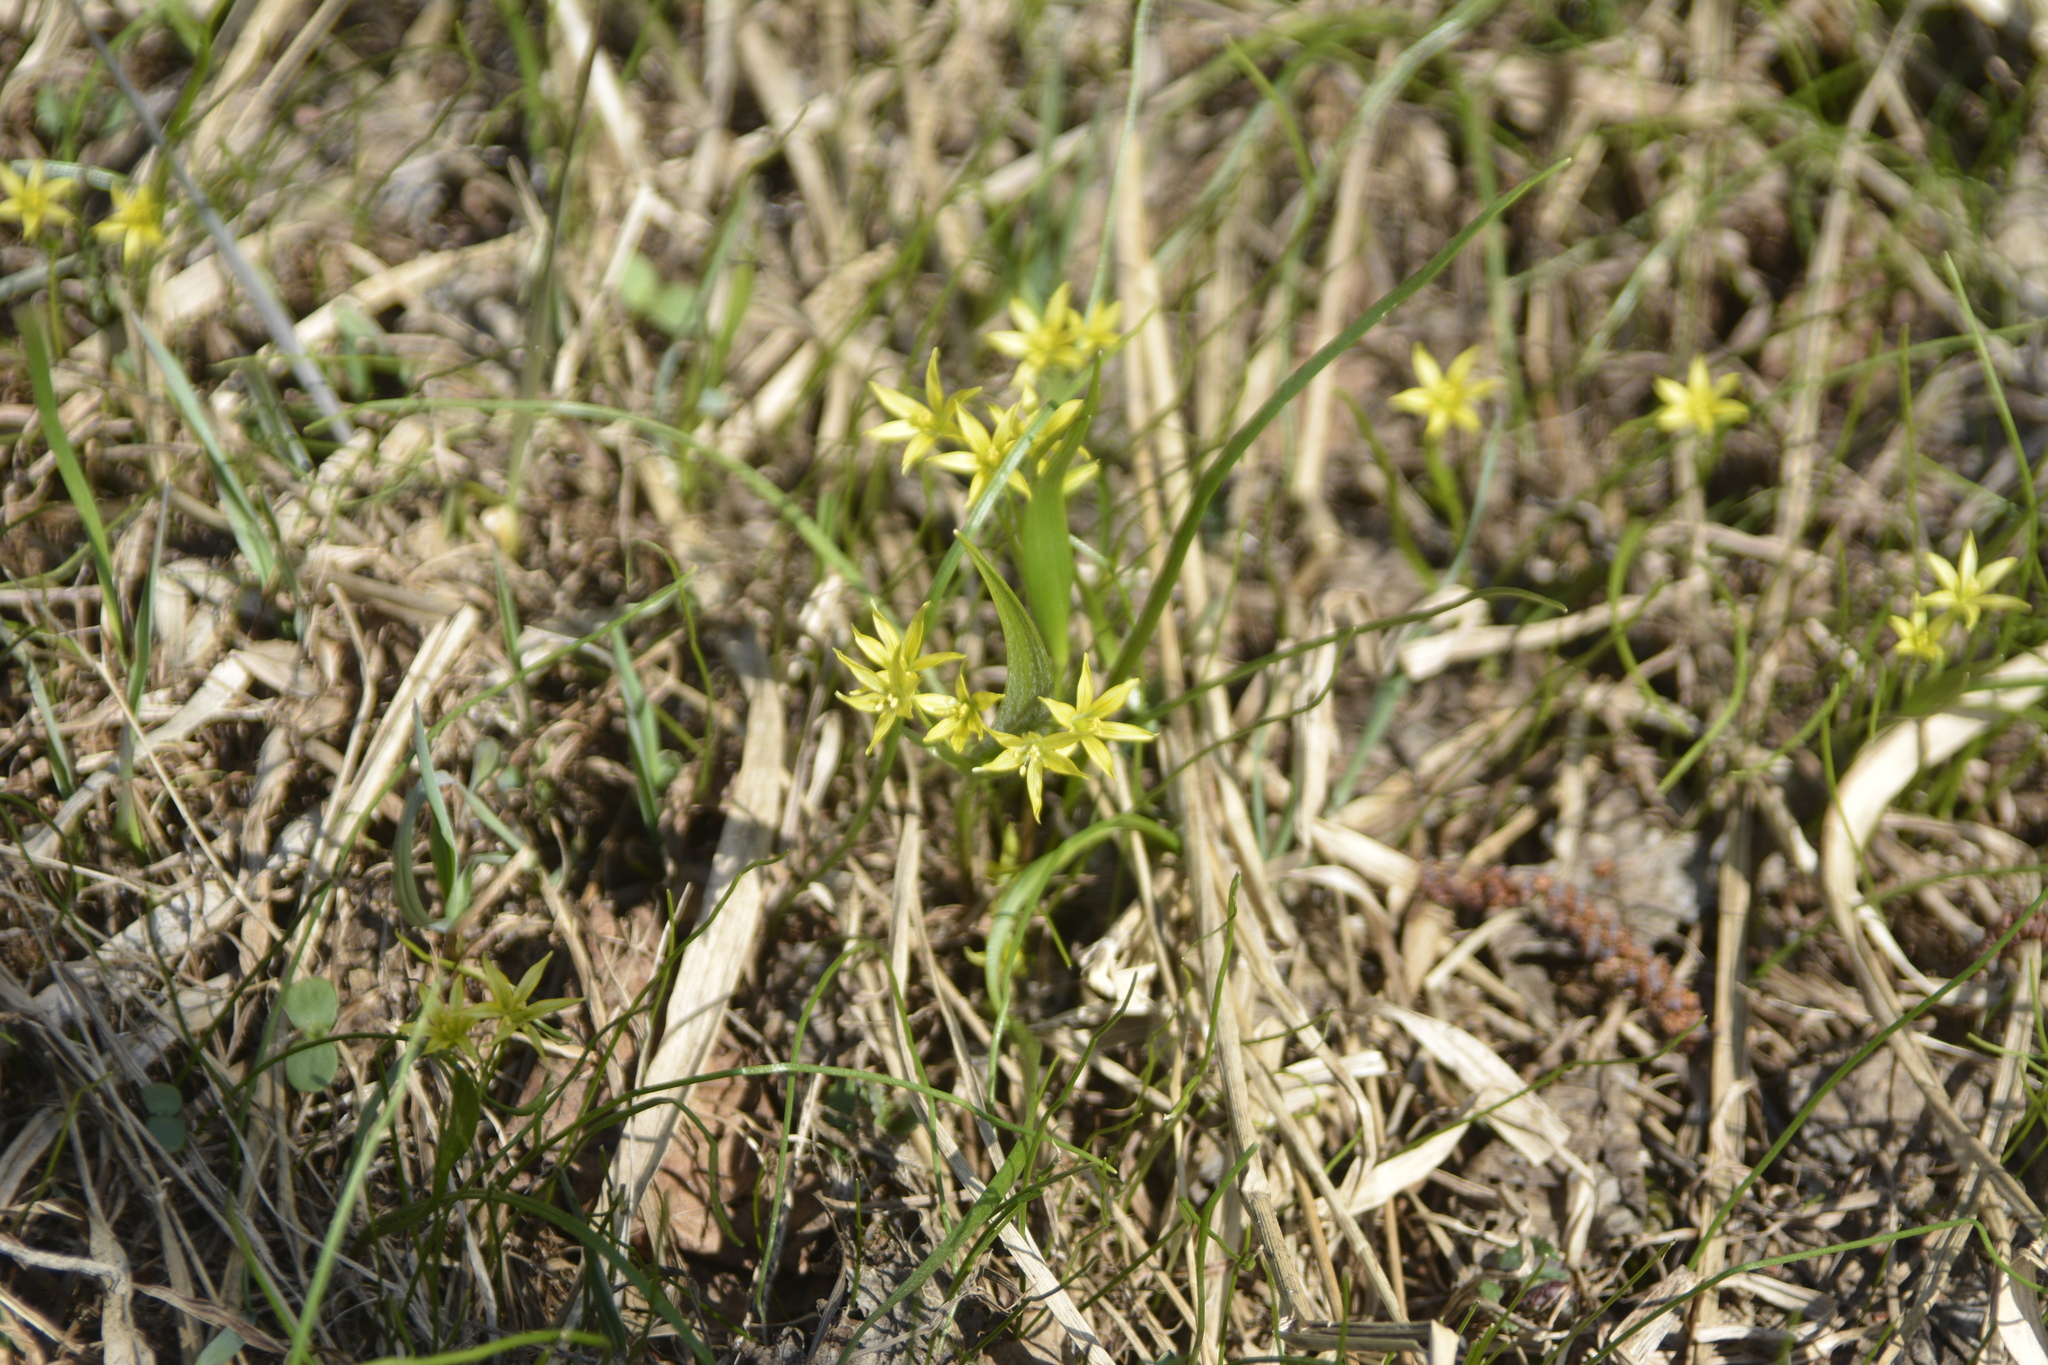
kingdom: Plantae
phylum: Tracheophyta
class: Liliopsida
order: Liliales
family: Liliaceae
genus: Gagea
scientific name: Gagea minima
